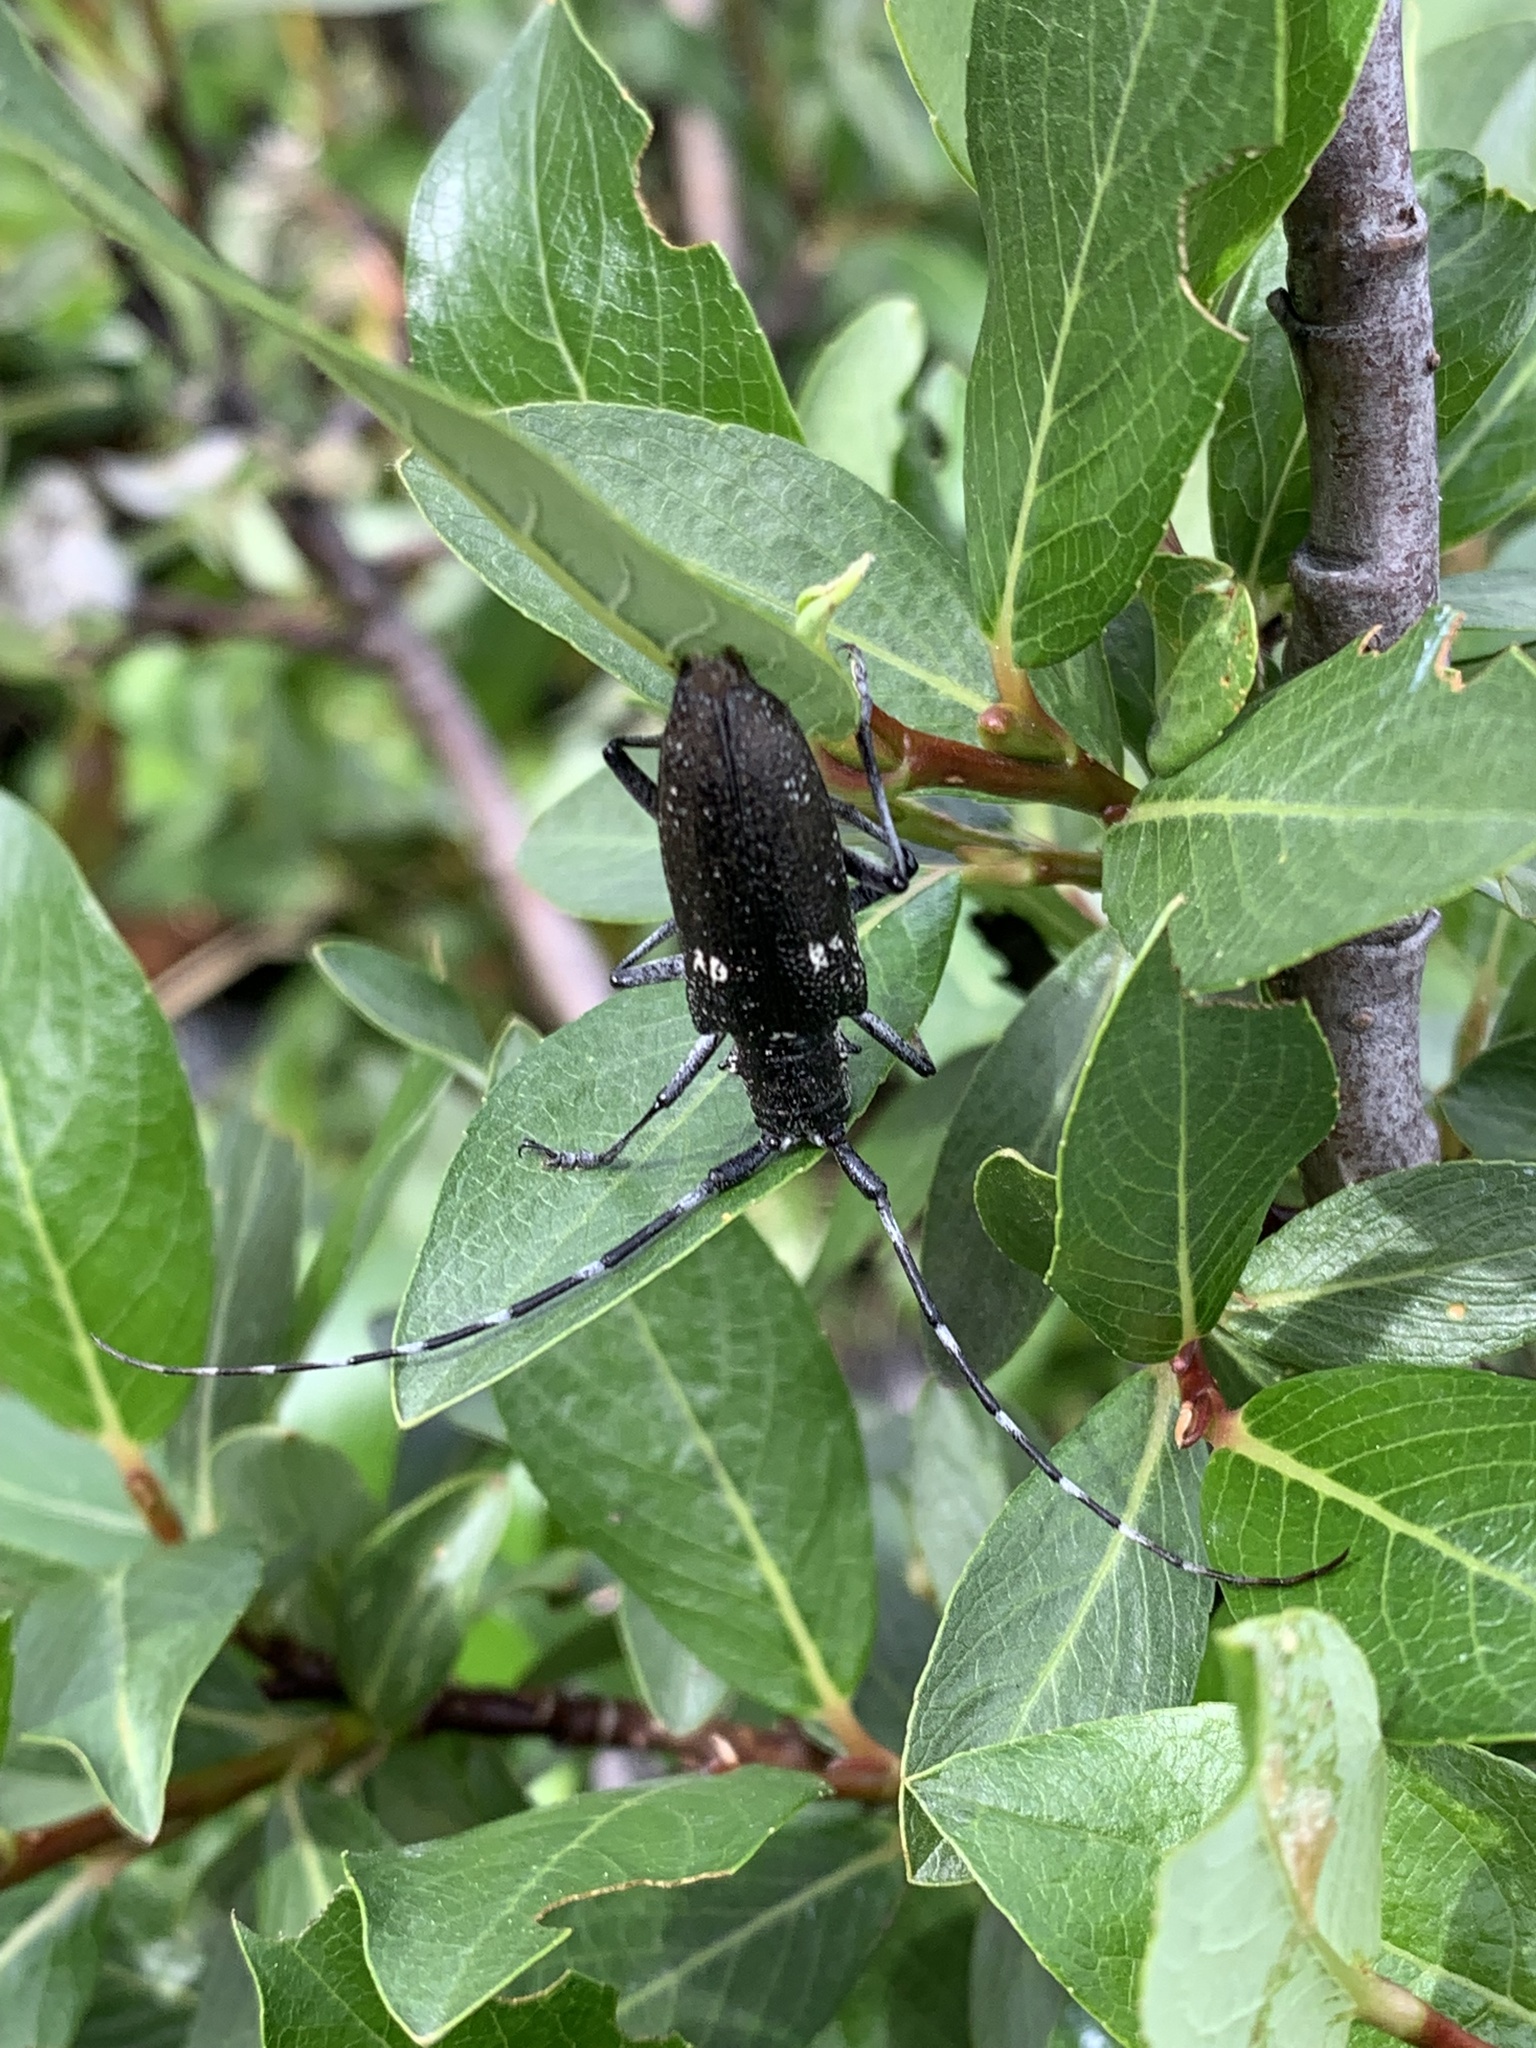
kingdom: Animalia
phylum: Arthropoda
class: Insecta
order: Coleoptera
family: Cerambycidae
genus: Monochamus
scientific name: Monochamus scutellatus
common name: White-spotted sawyer beetle
